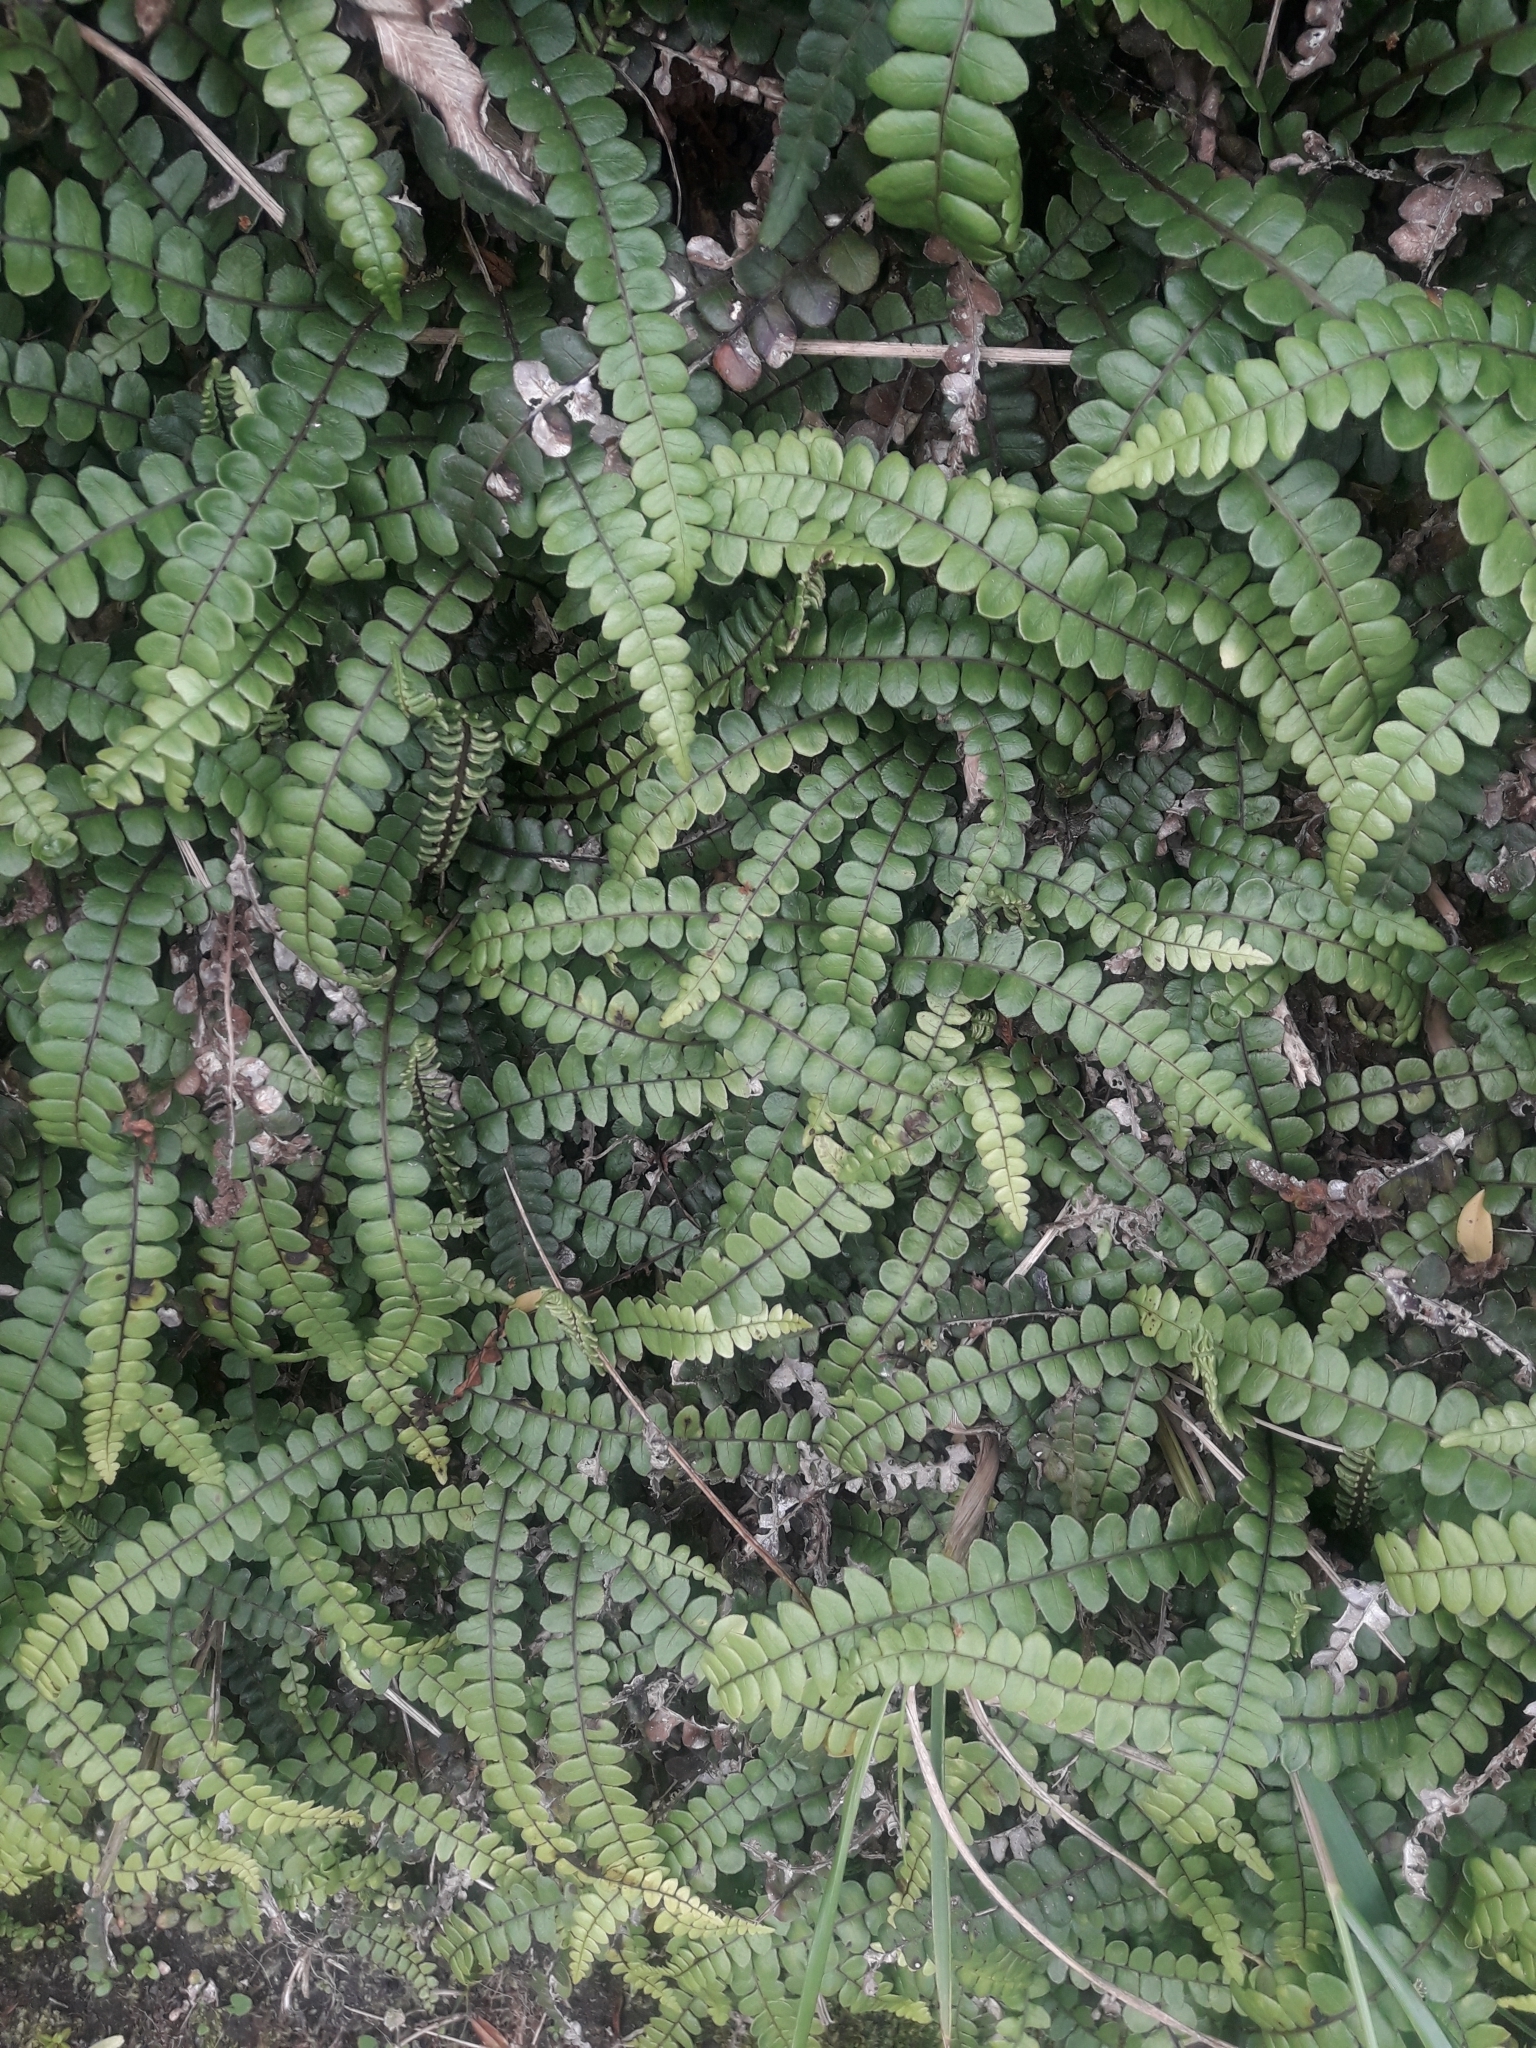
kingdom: Plantae
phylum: Tracheophyta
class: Polypodiopsida
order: Polypodiales
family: Blechnaceae
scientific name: Blechnaceae
